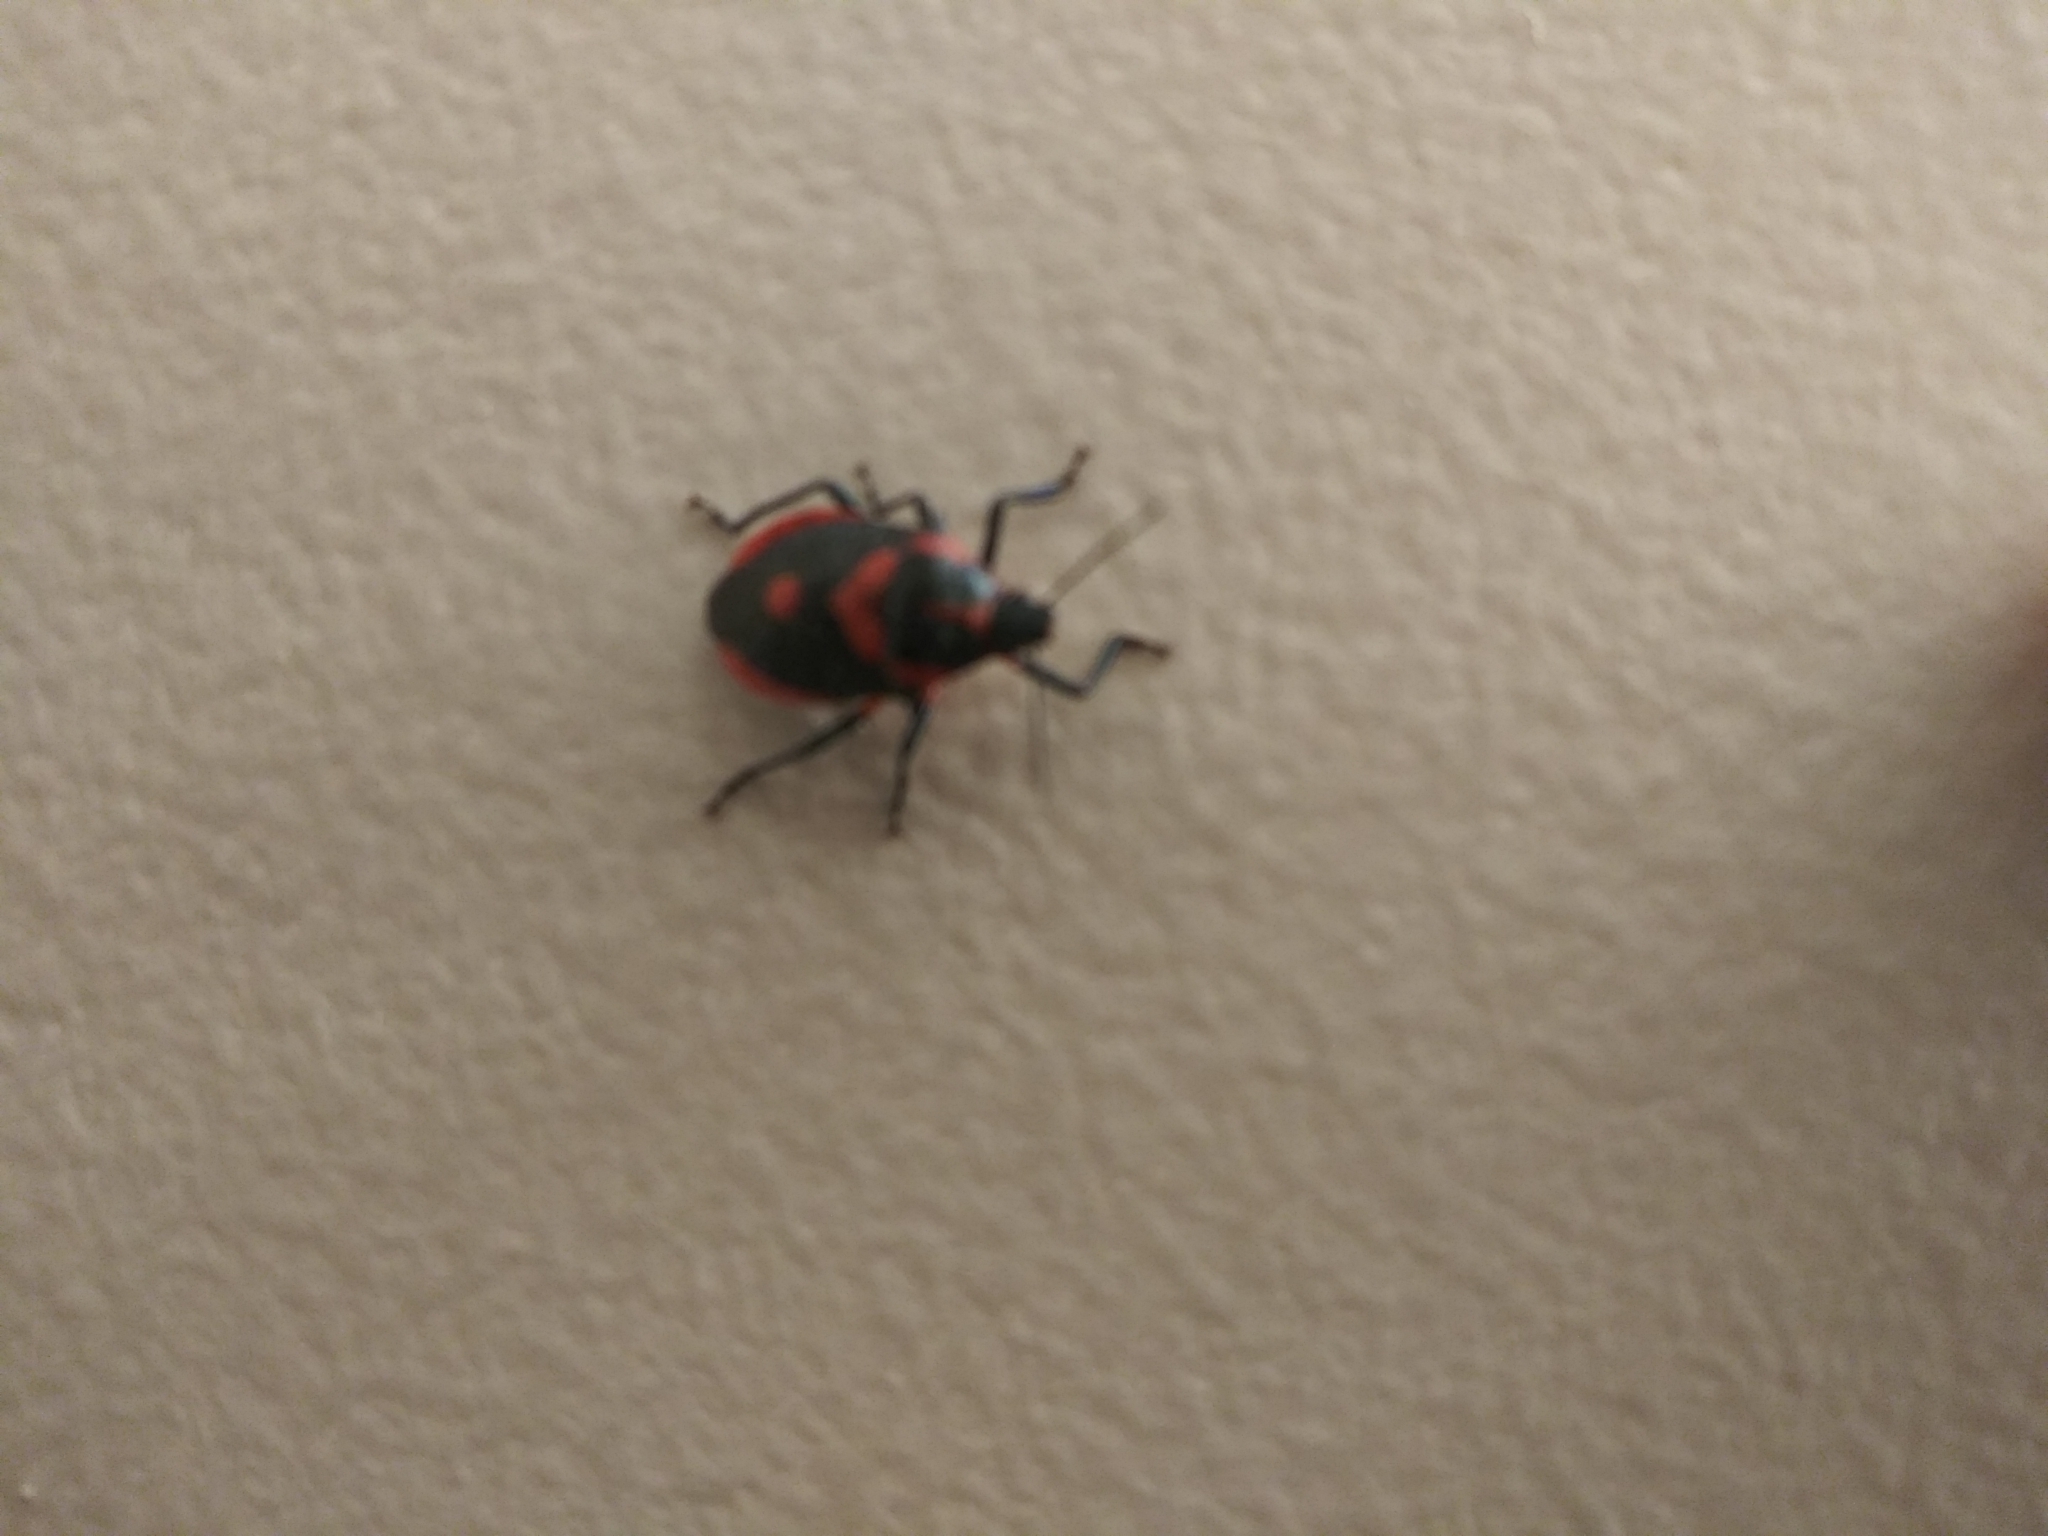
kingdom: Animalia
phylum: Arthropoda
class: Insecta
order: Hemiptera
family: Pentatomidae
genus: Euthyrhynchus
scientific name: Euthyrhynchus floridanus
